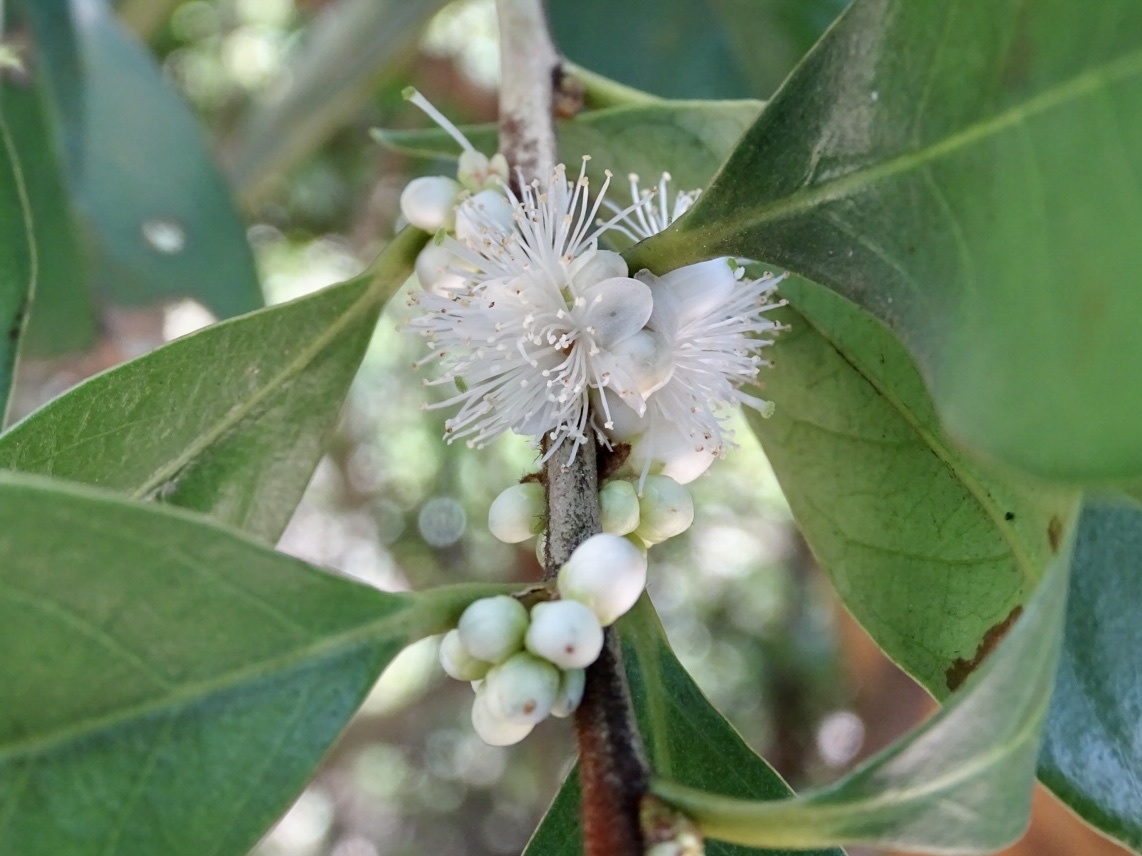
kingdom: Plantae
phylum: Tracheophyta
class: Magnoliopsida
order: Ericales
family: Symplocaceae
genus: Symplocos
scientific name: Symplocos congesta
